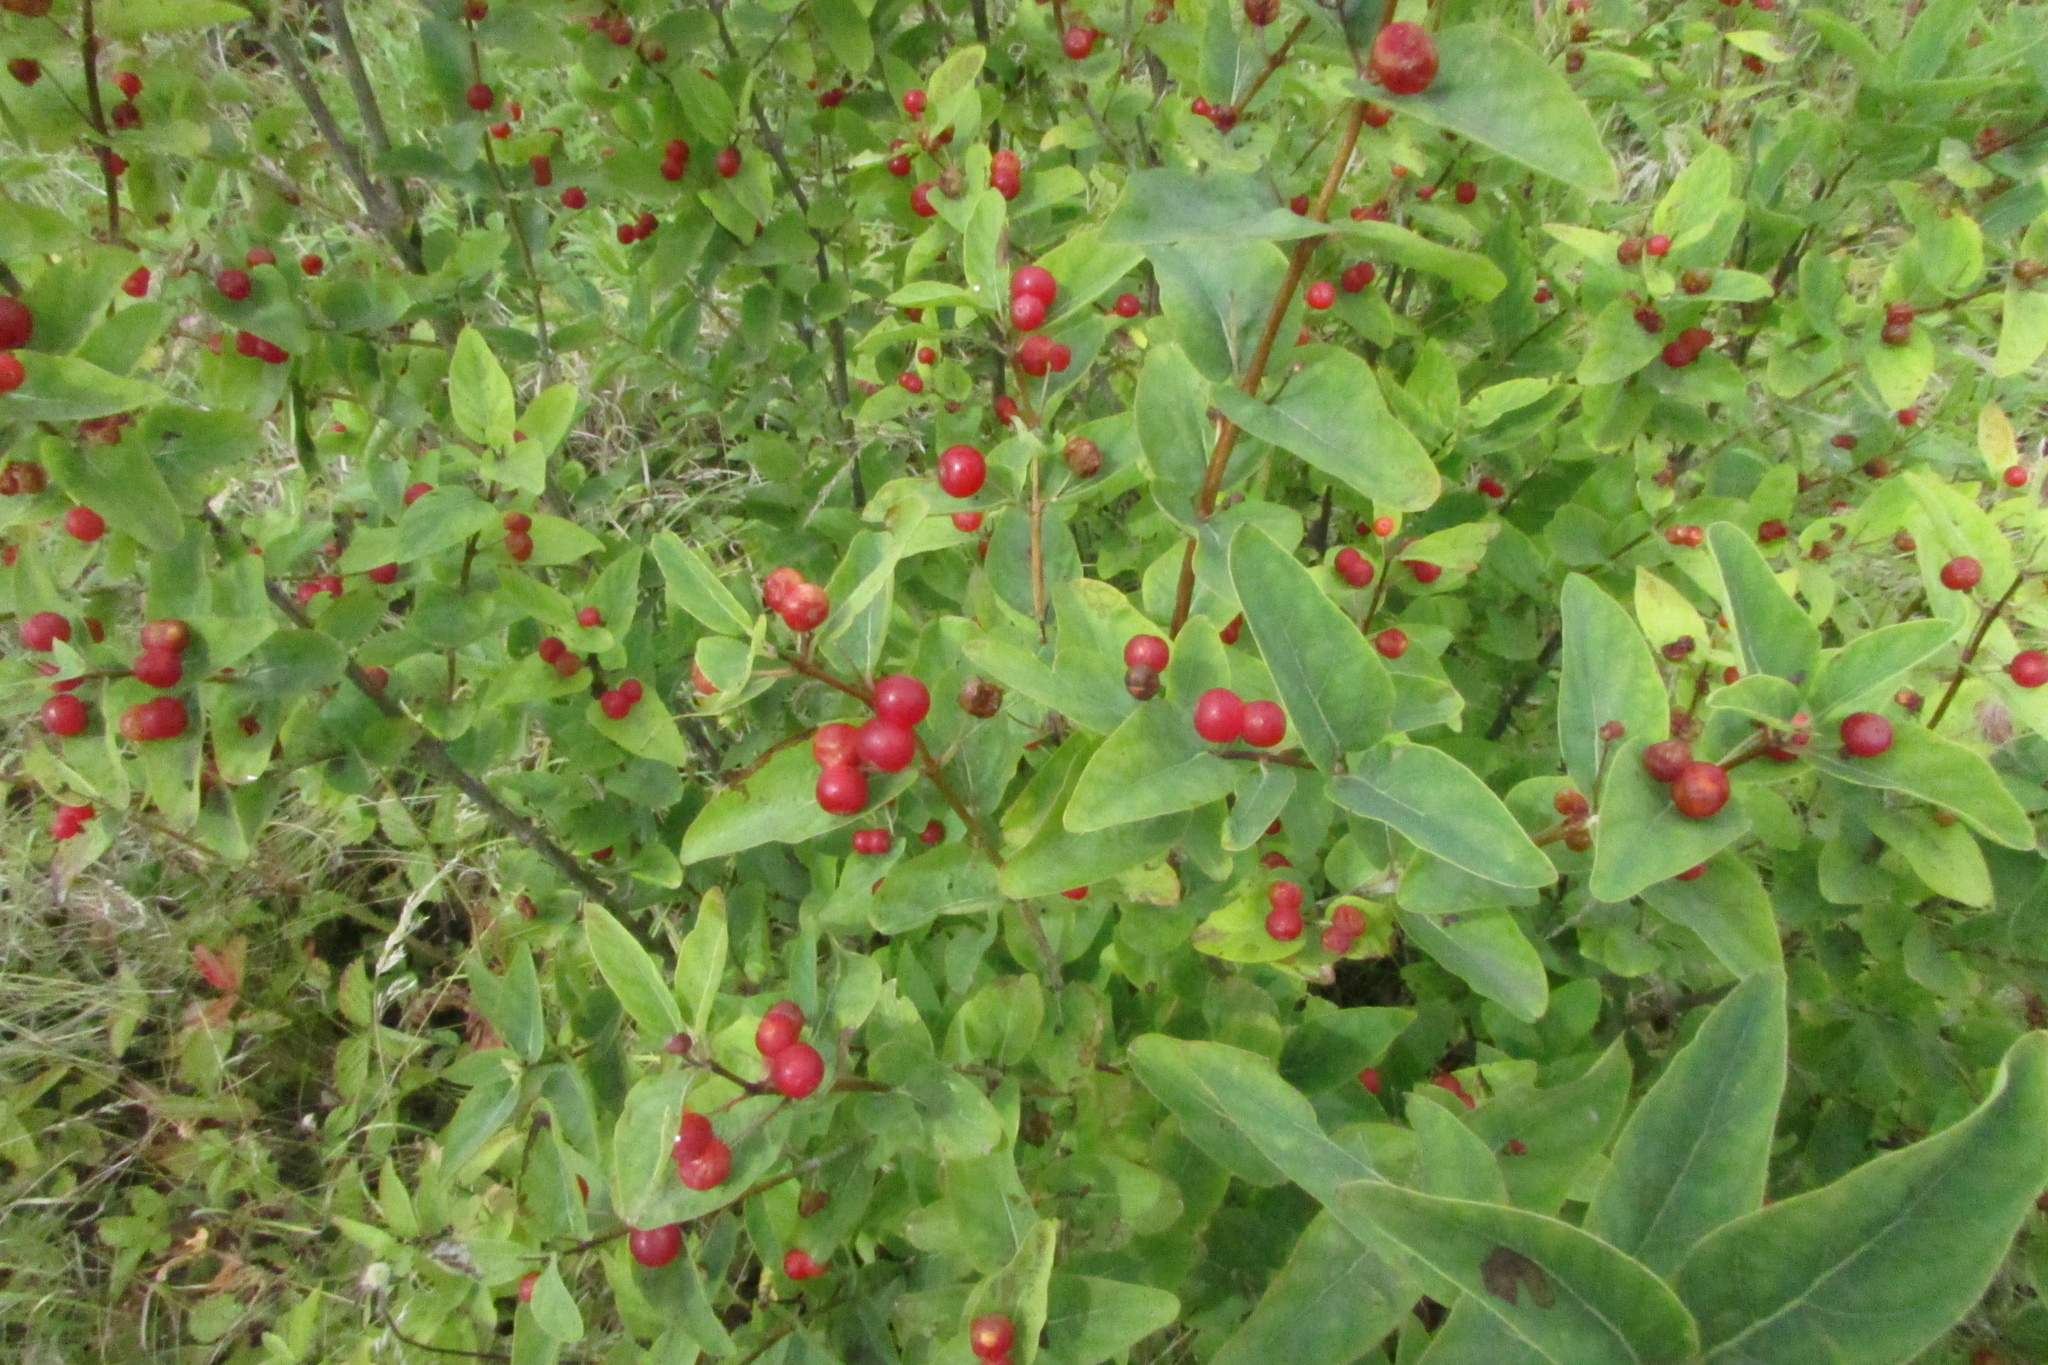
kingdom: Plantae
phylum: Tracheophyta
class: Magnoliopsida
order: Dipsacales
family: Caprifoliaceae
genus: Lonicera
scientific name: Lonicera tatarica
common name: Tatarian honeysuckle
